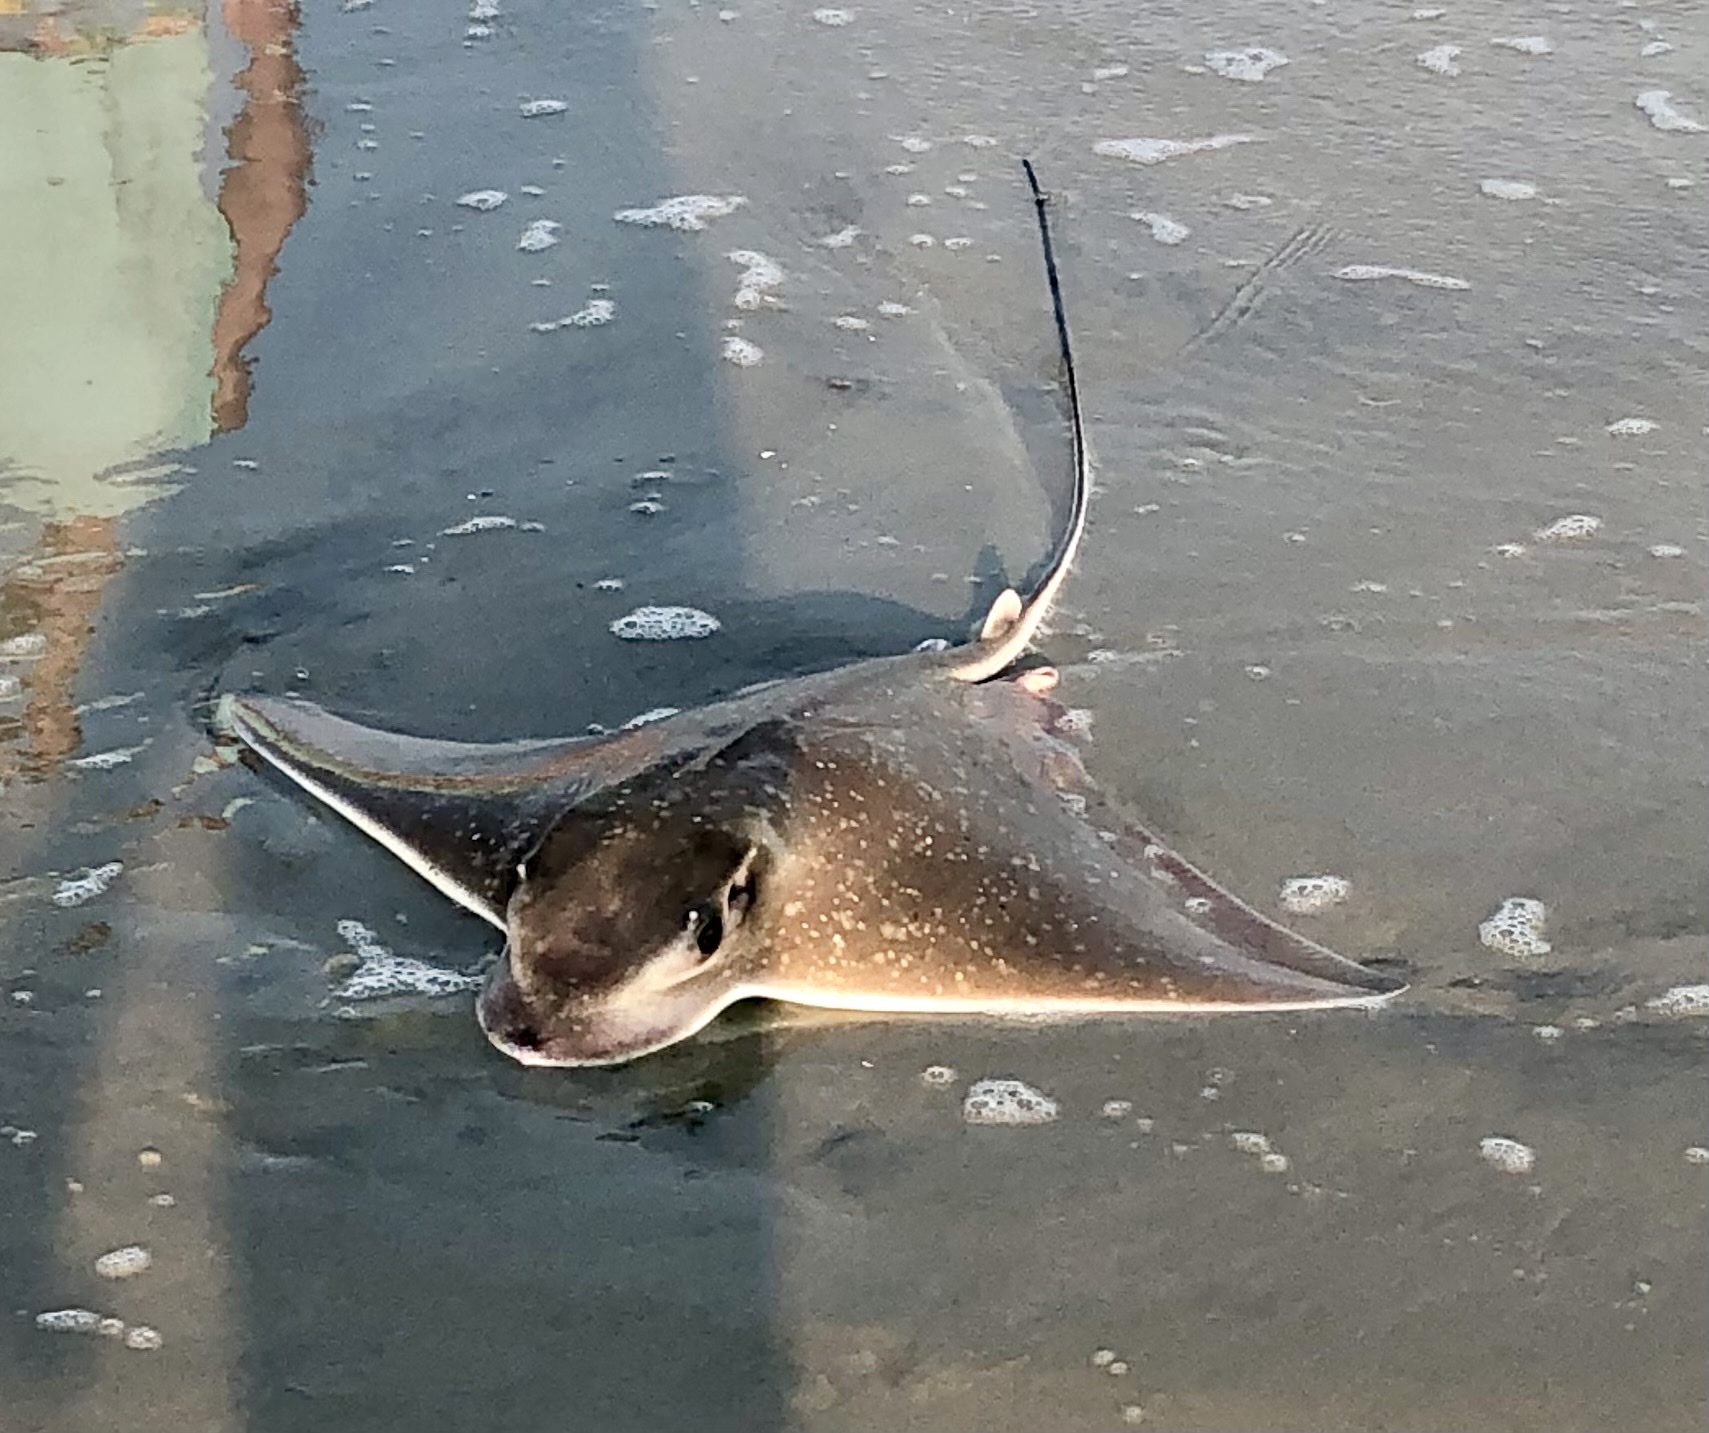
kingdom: Animalia
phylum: Chordata
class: Elasmobranchii
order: Myliobatiformes
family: Myliobatidae
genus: Myliobatis
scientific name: Myliobatis freminvillei
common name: Bullnose ray
